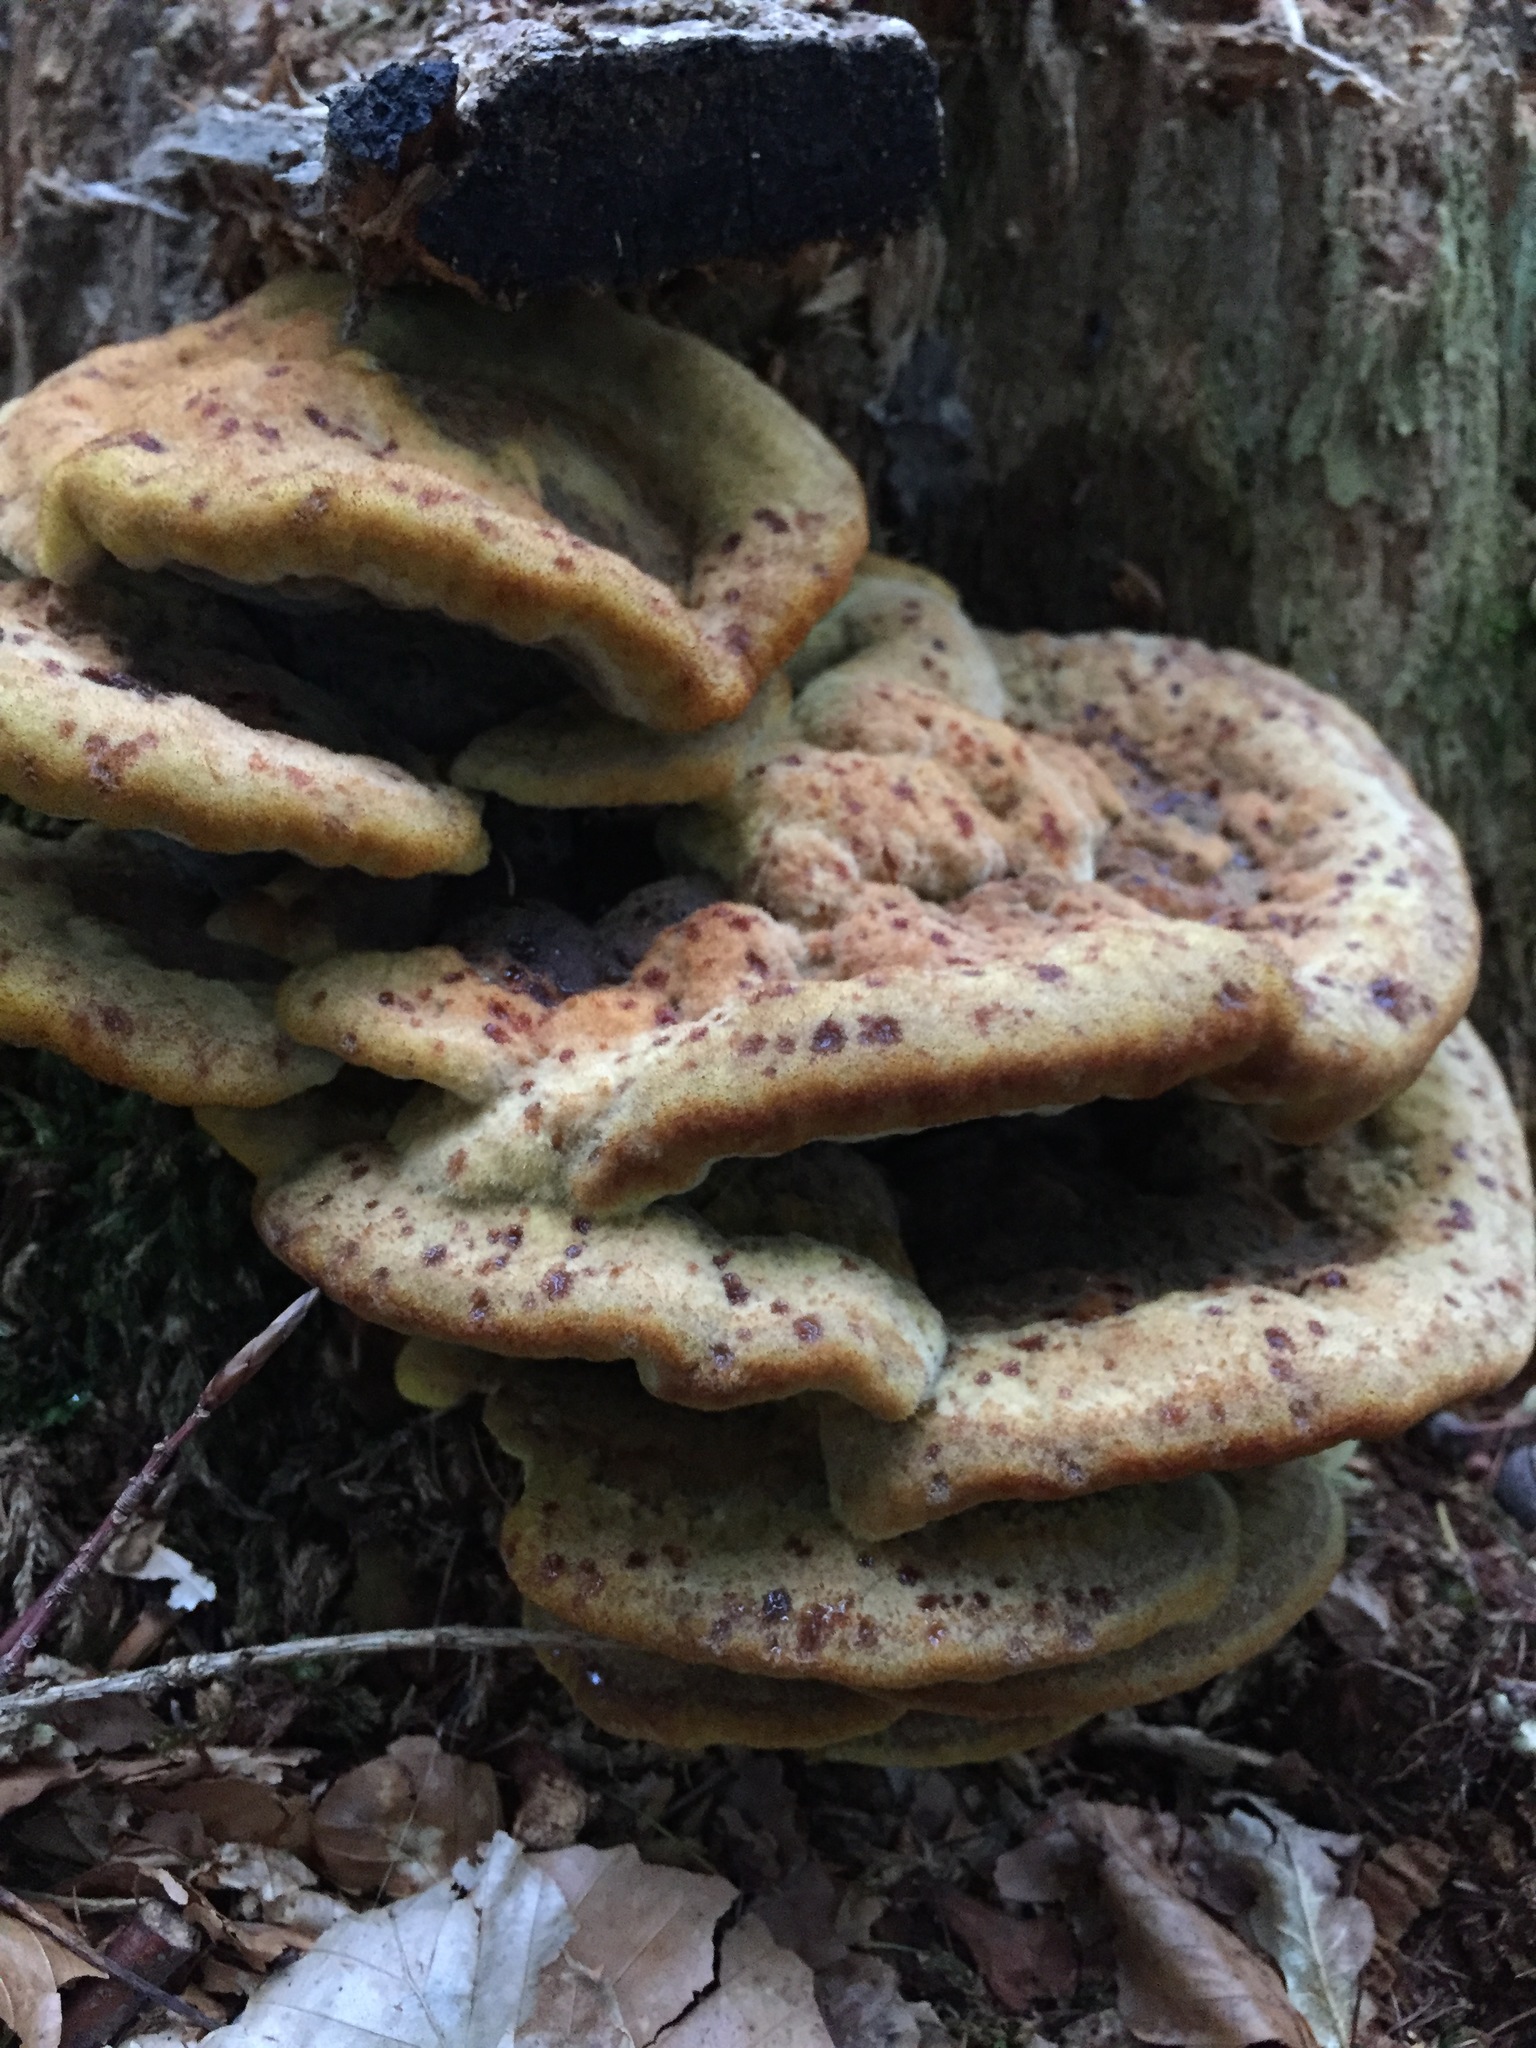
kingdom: Fungi
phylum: Basidiomycota
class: Agaricomycetes
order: Polyporales
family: Laetiporaceae
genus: Phaeolus
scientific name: Phaeolus schweinitzii
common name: Dyer's mazegill
